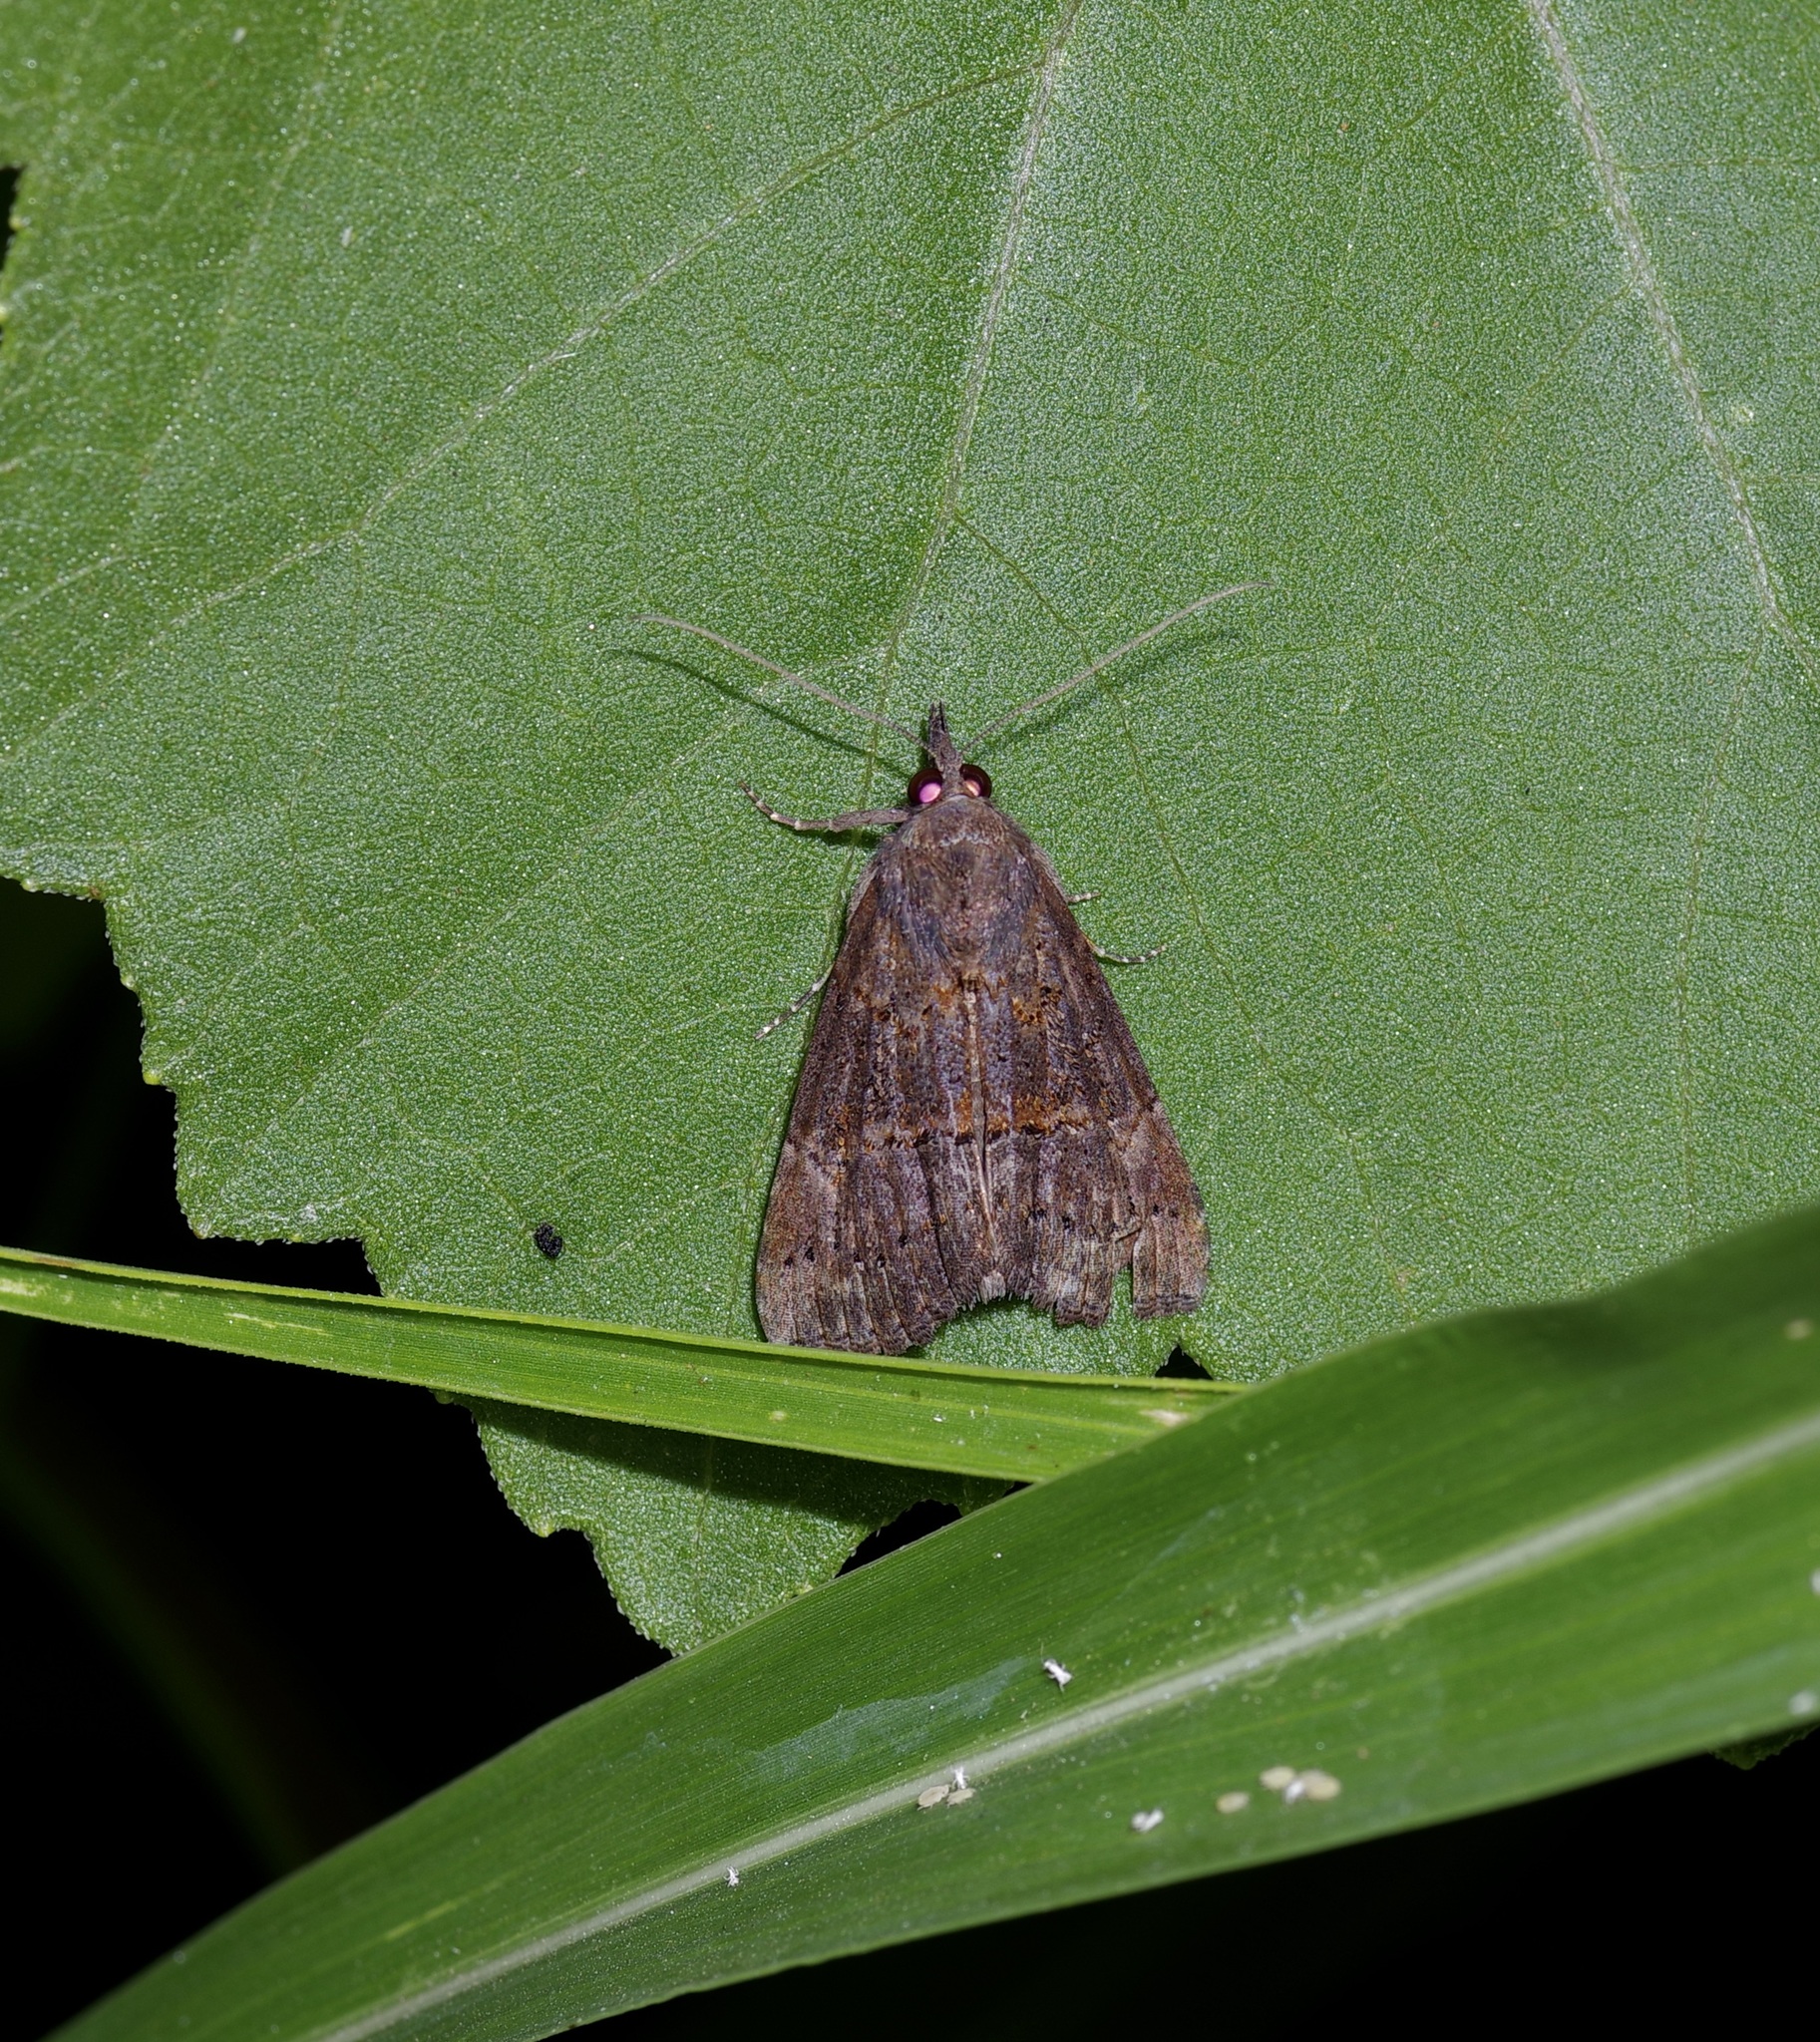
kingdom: Animalia
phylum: Arthropoda
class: Insecta
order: Lepidoptera
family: Erebidae
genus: Hypena
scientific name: Hypena scabra
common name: Green cloverworm
